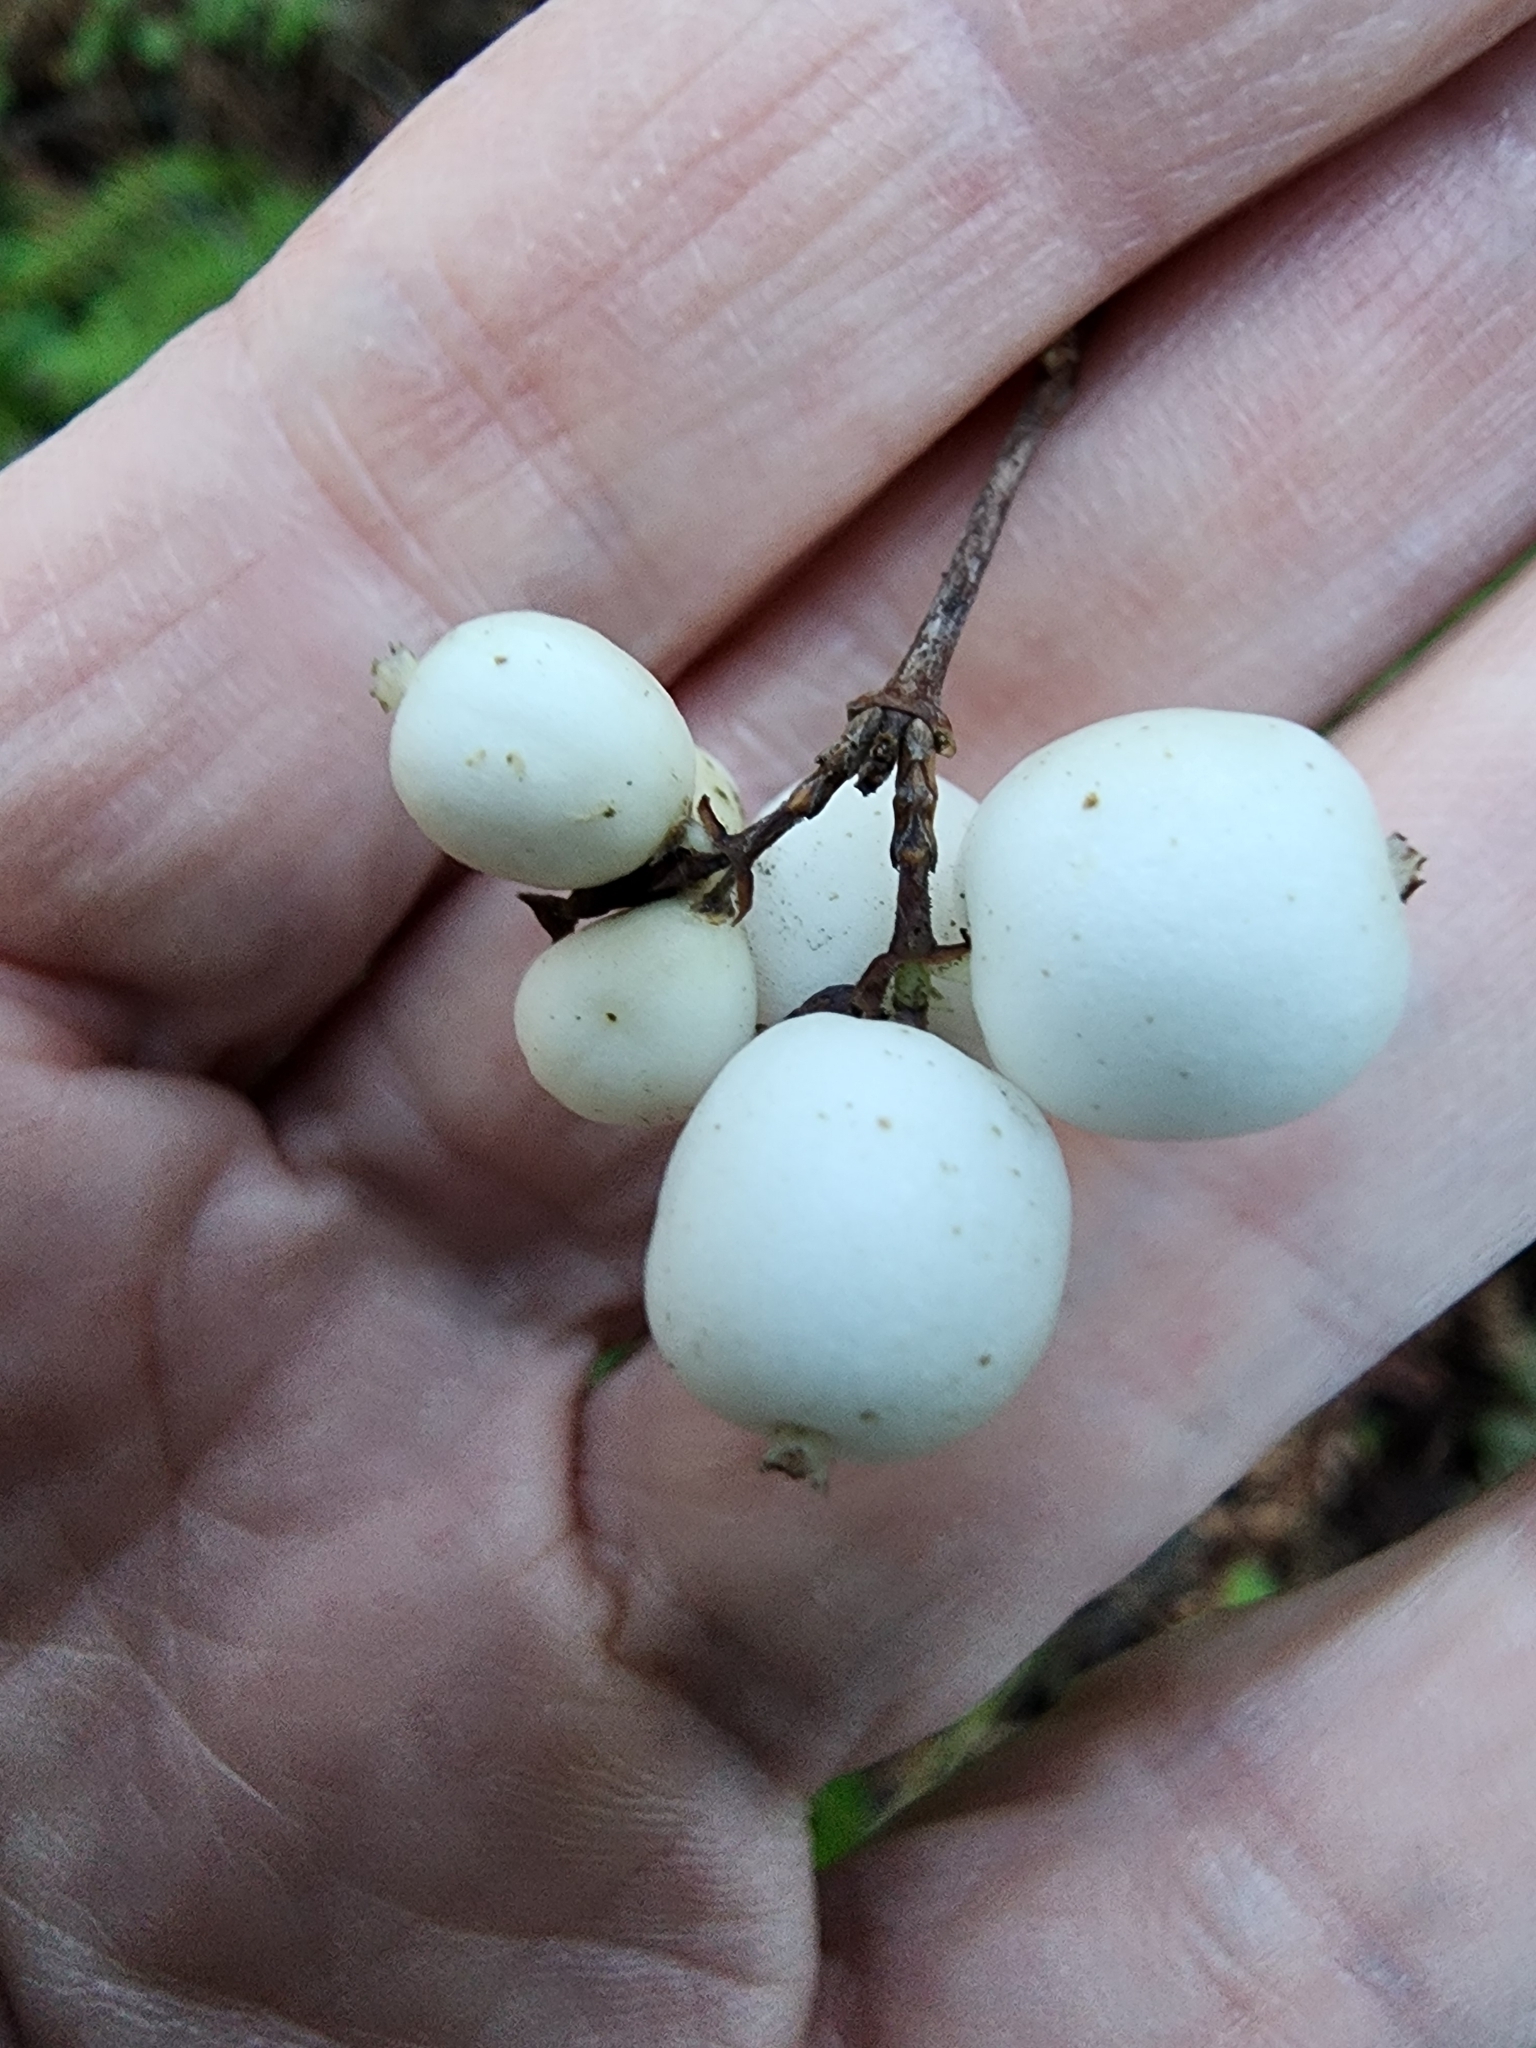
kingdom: Plantae
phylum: Tracheophyta
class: Magnoliopsida
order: Dipsacales
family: Caprifoliaceae
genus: Symphoricarpos
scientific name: Symphoricarpos albus
